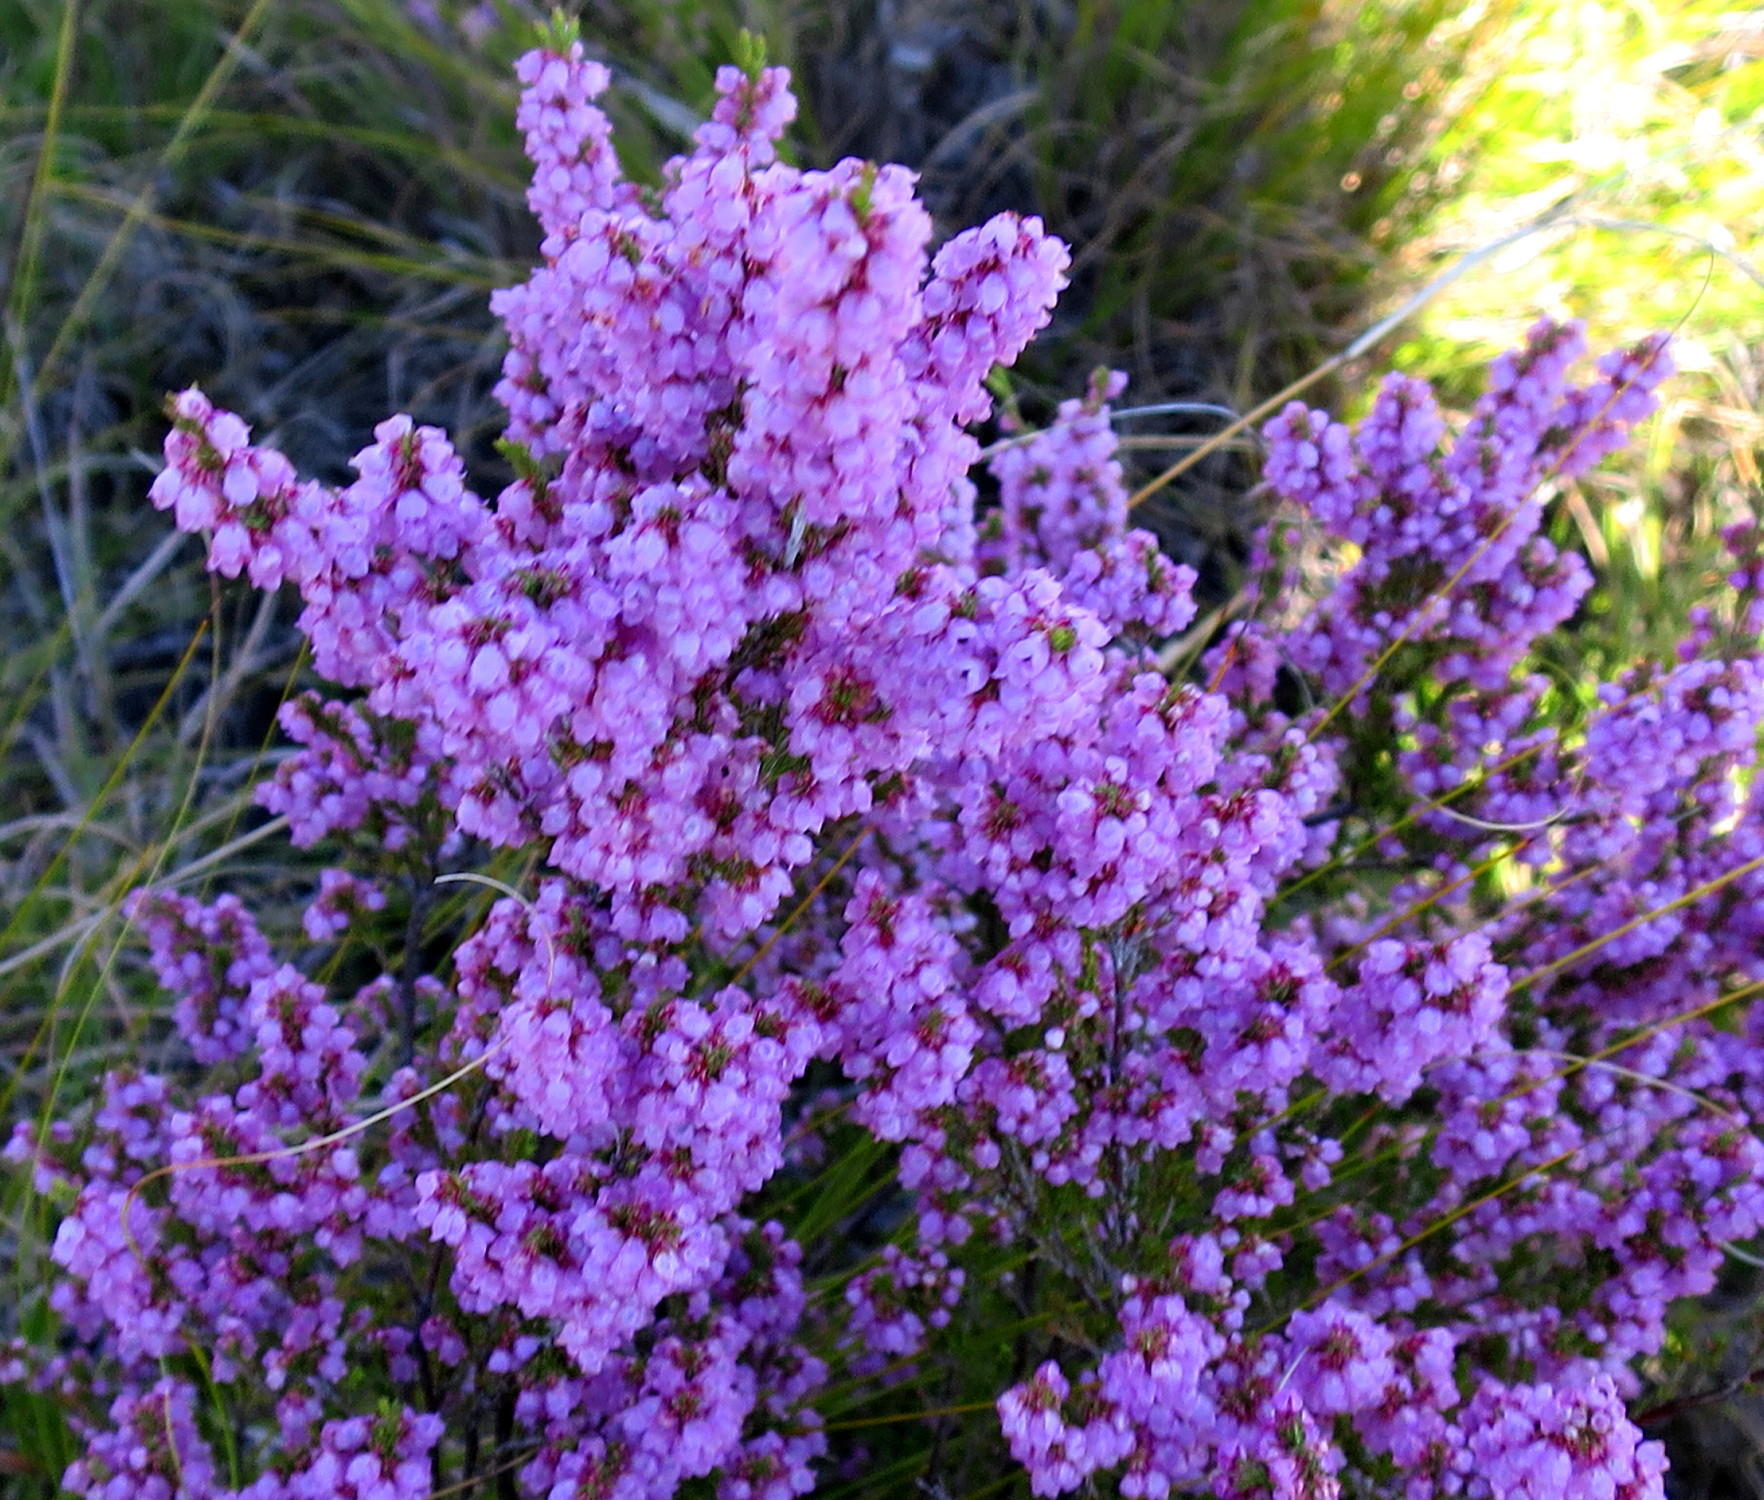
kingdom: Plantae
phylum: Tracheophyta
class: Magnoliopsida
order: Ericales
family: Ericaceae
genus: Erica
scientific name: Erica quadrangularis
